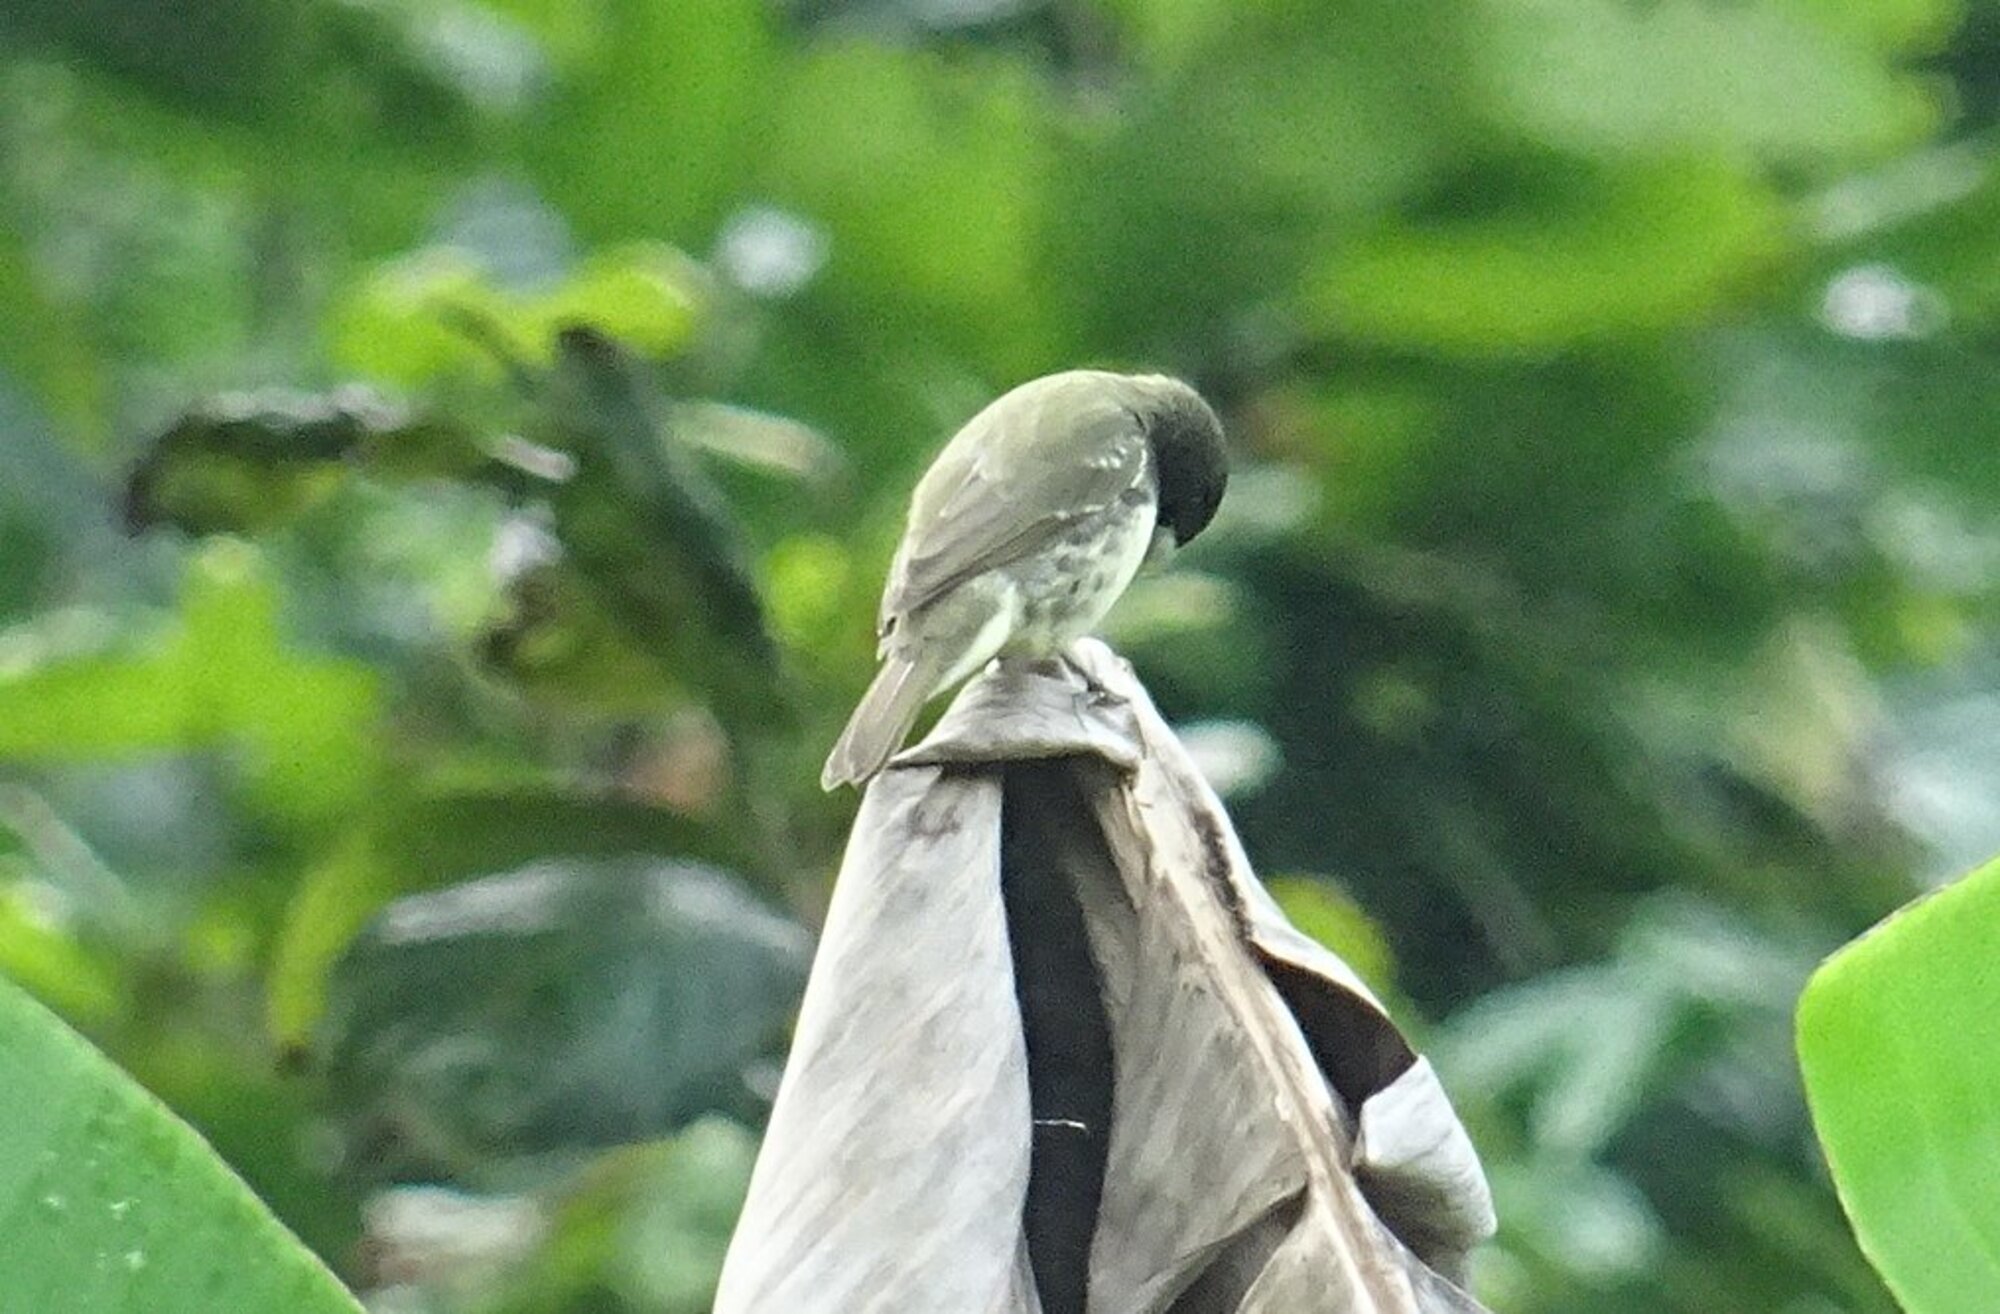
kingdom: Animalia
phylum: Chordata
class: Aves
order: Passeriformes
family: Thraupidae
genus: Sporophila
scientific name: Sporophila nigricollis
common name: Yellow-bellied seedeater
